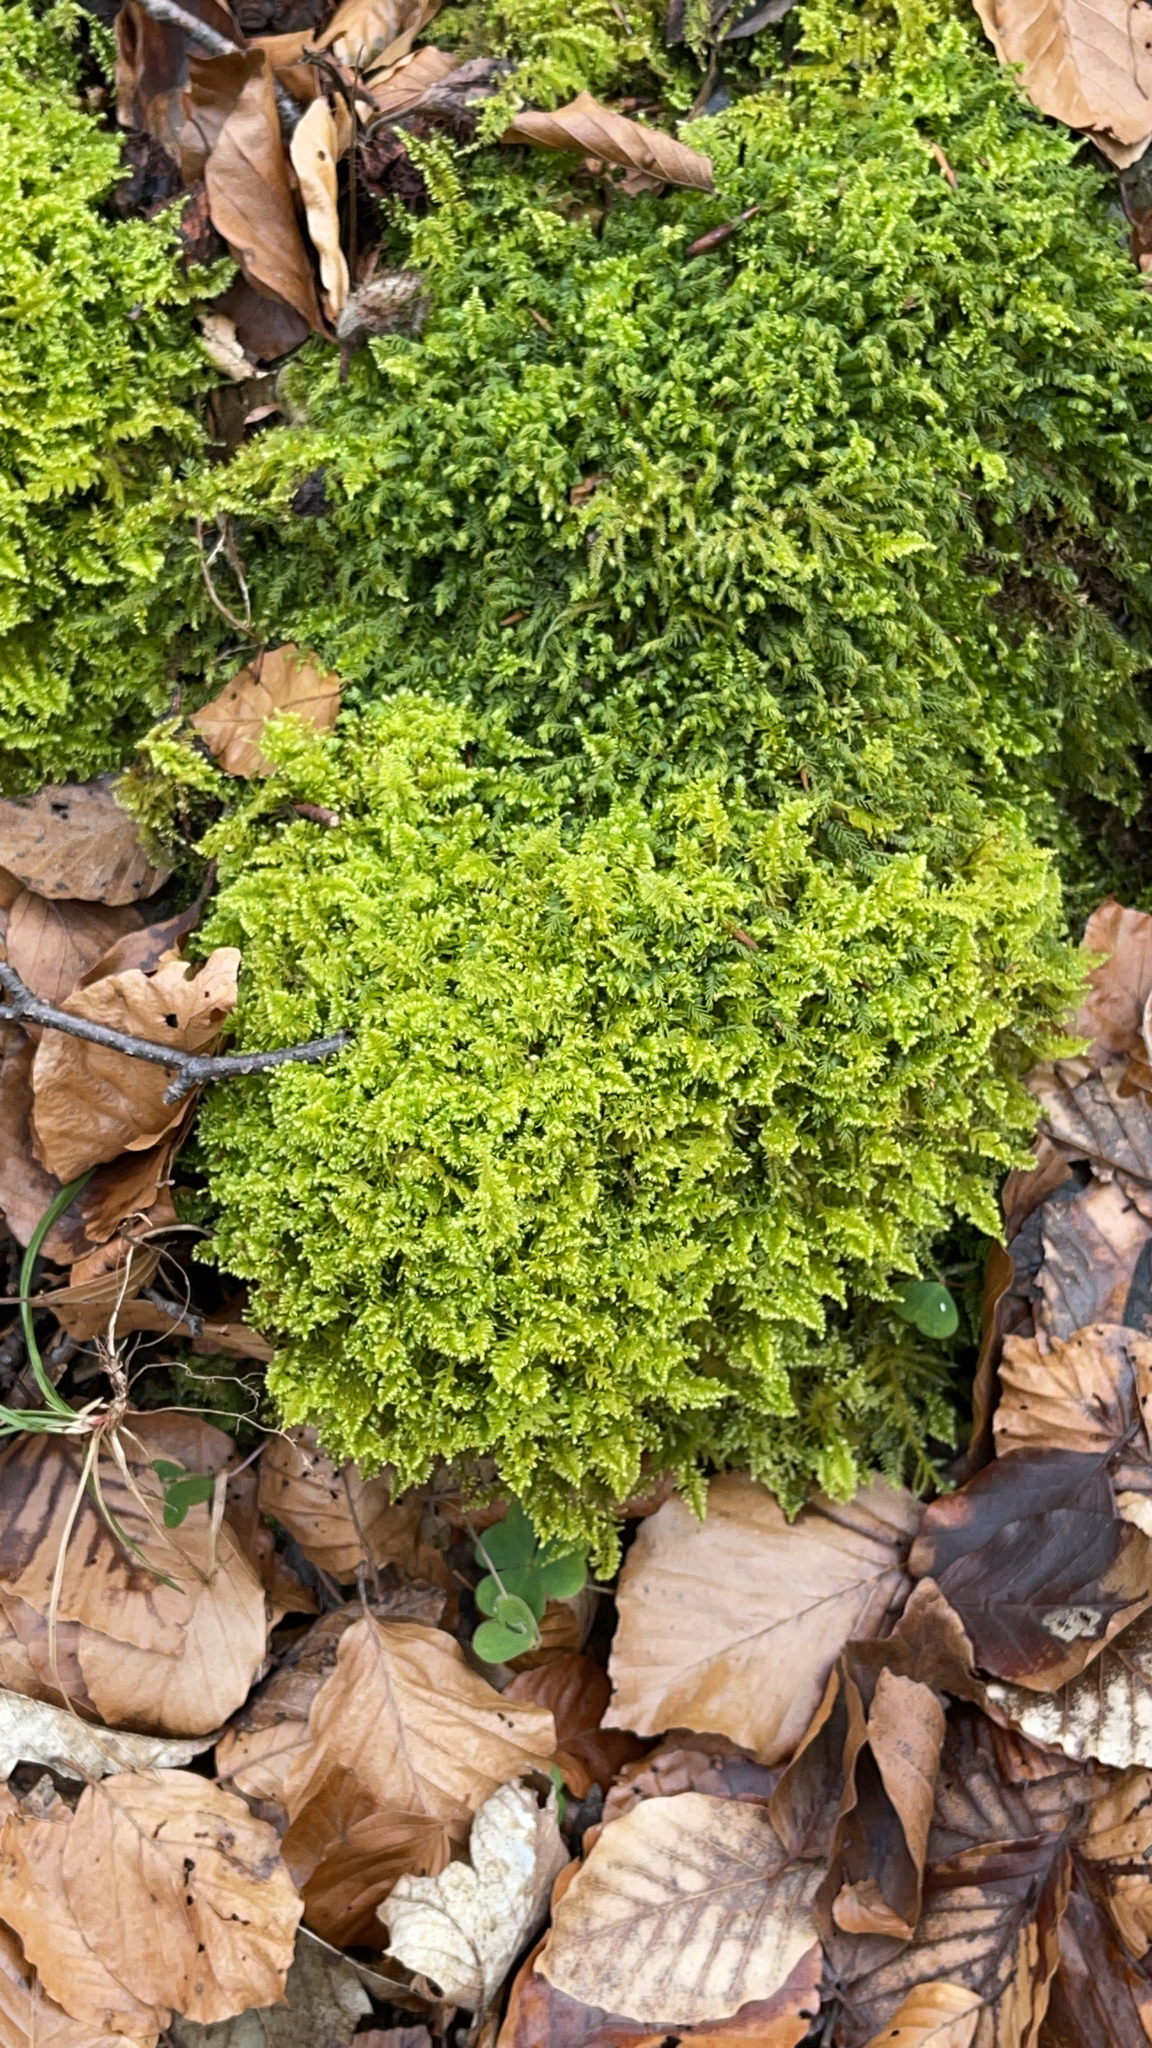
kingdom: Plantae
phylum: Bryophyta
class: Bryopsida
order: Hypnales
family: Myuriaceae
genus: Ctenidium
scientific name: Ctenidium molluscum
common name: Chalk comb-moss
